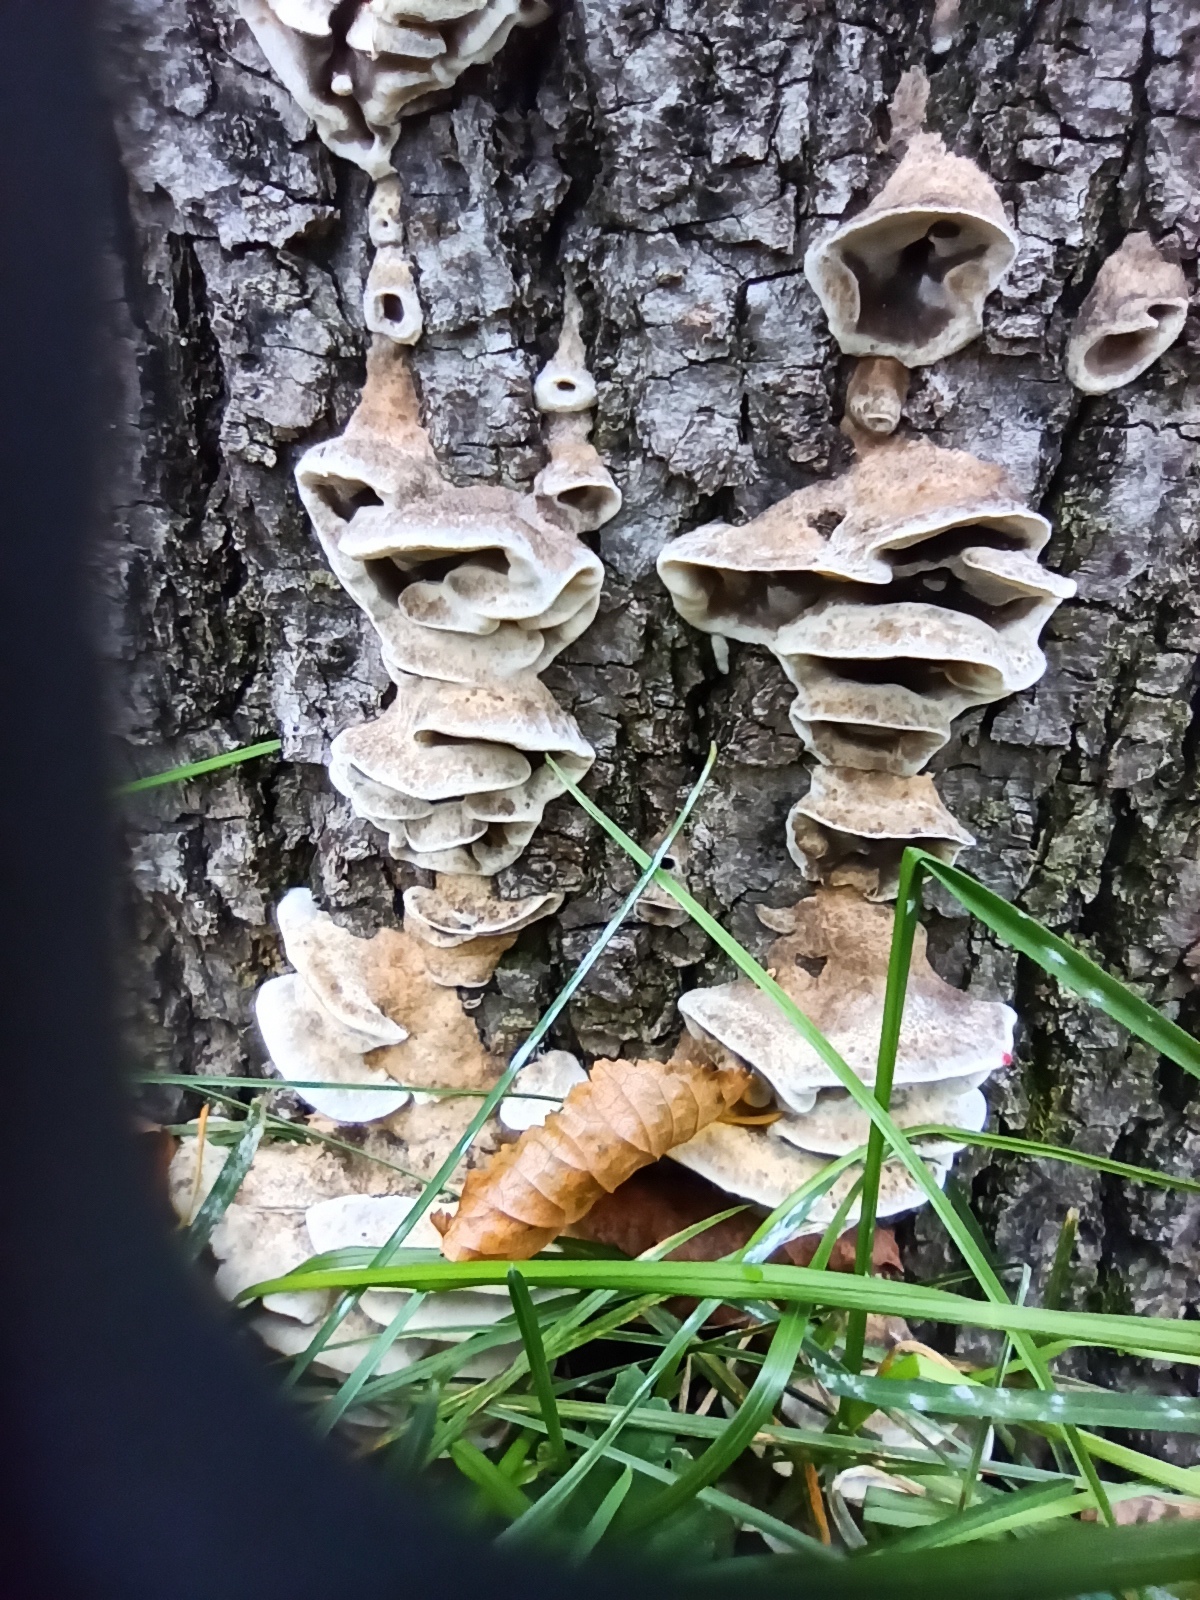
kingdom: Fungi
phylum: Basidiomycota
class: Agaricomycetes
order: Polyporales
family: Phanerochaetaceae
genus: Bjerkandera
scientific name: Bjerkandera adusta
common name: Smoky bracket
